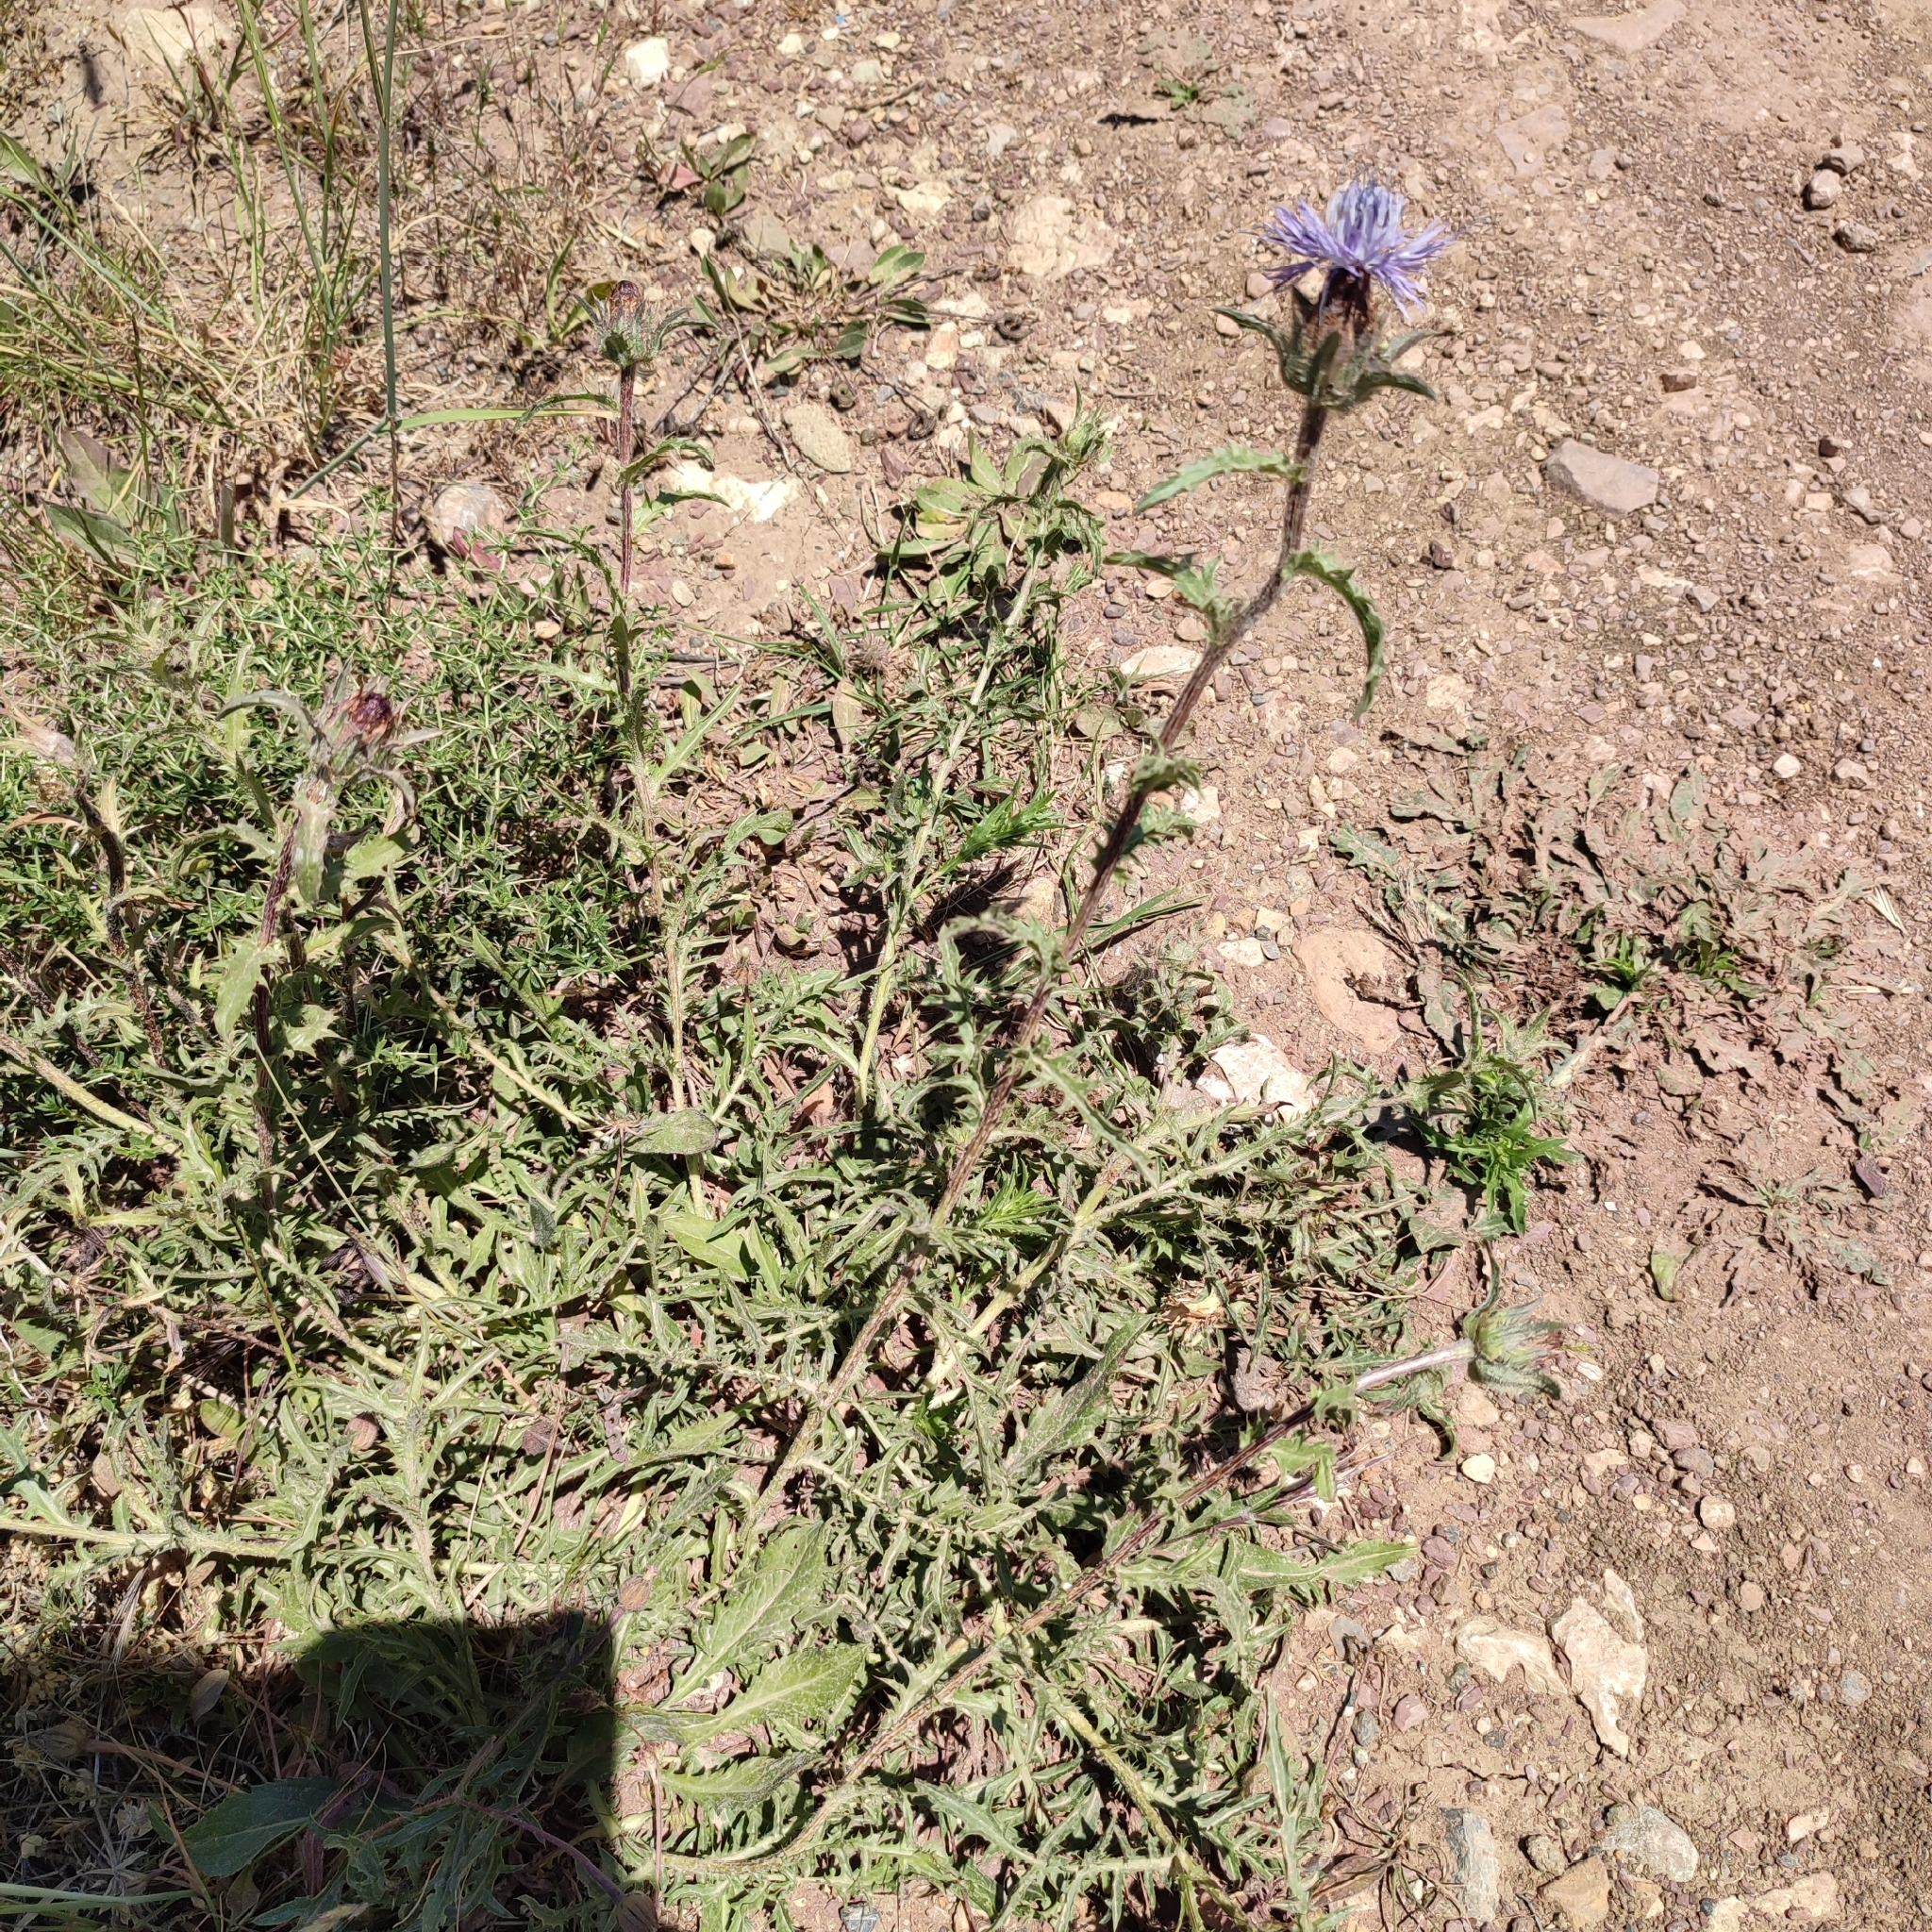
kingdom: Plantae
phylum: Tracheophyta
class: Magnoliopsida
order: Asterales
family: Asteraceae
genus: Carduncellus
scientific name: Carduncellus caeruleus
